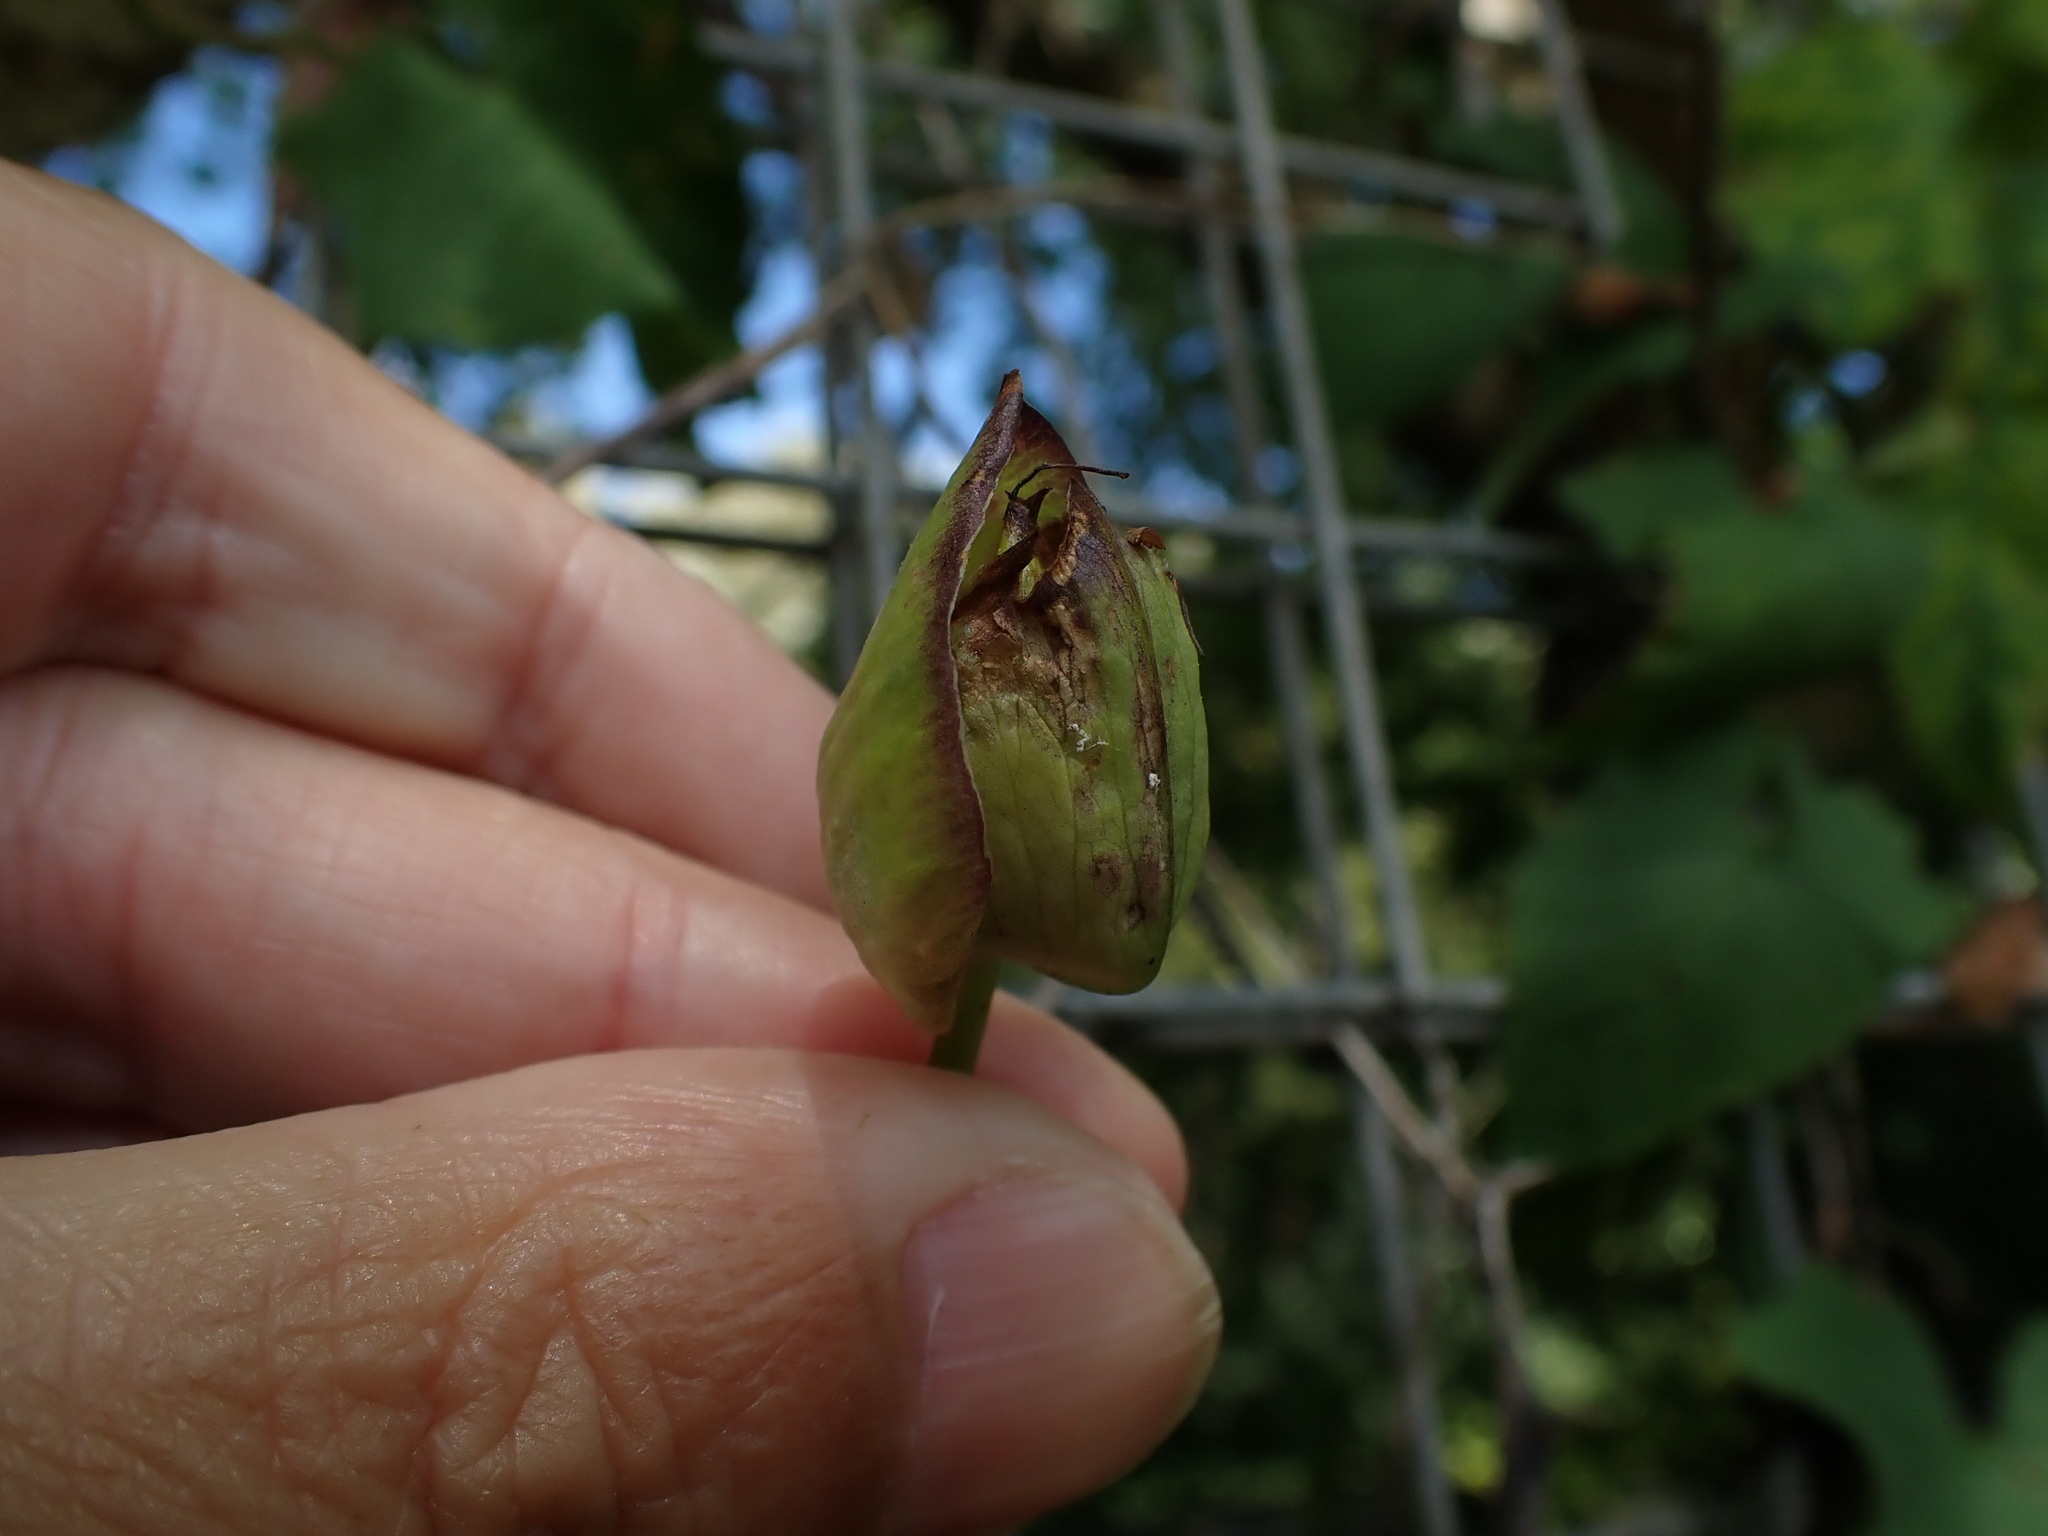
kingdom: Plantae
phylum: Tracheophyta
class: Magnoliopsida
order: Solanales
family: Convolvulaceae
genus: Calystegia
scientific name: Calystegia silvatica
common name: Large bindweed
